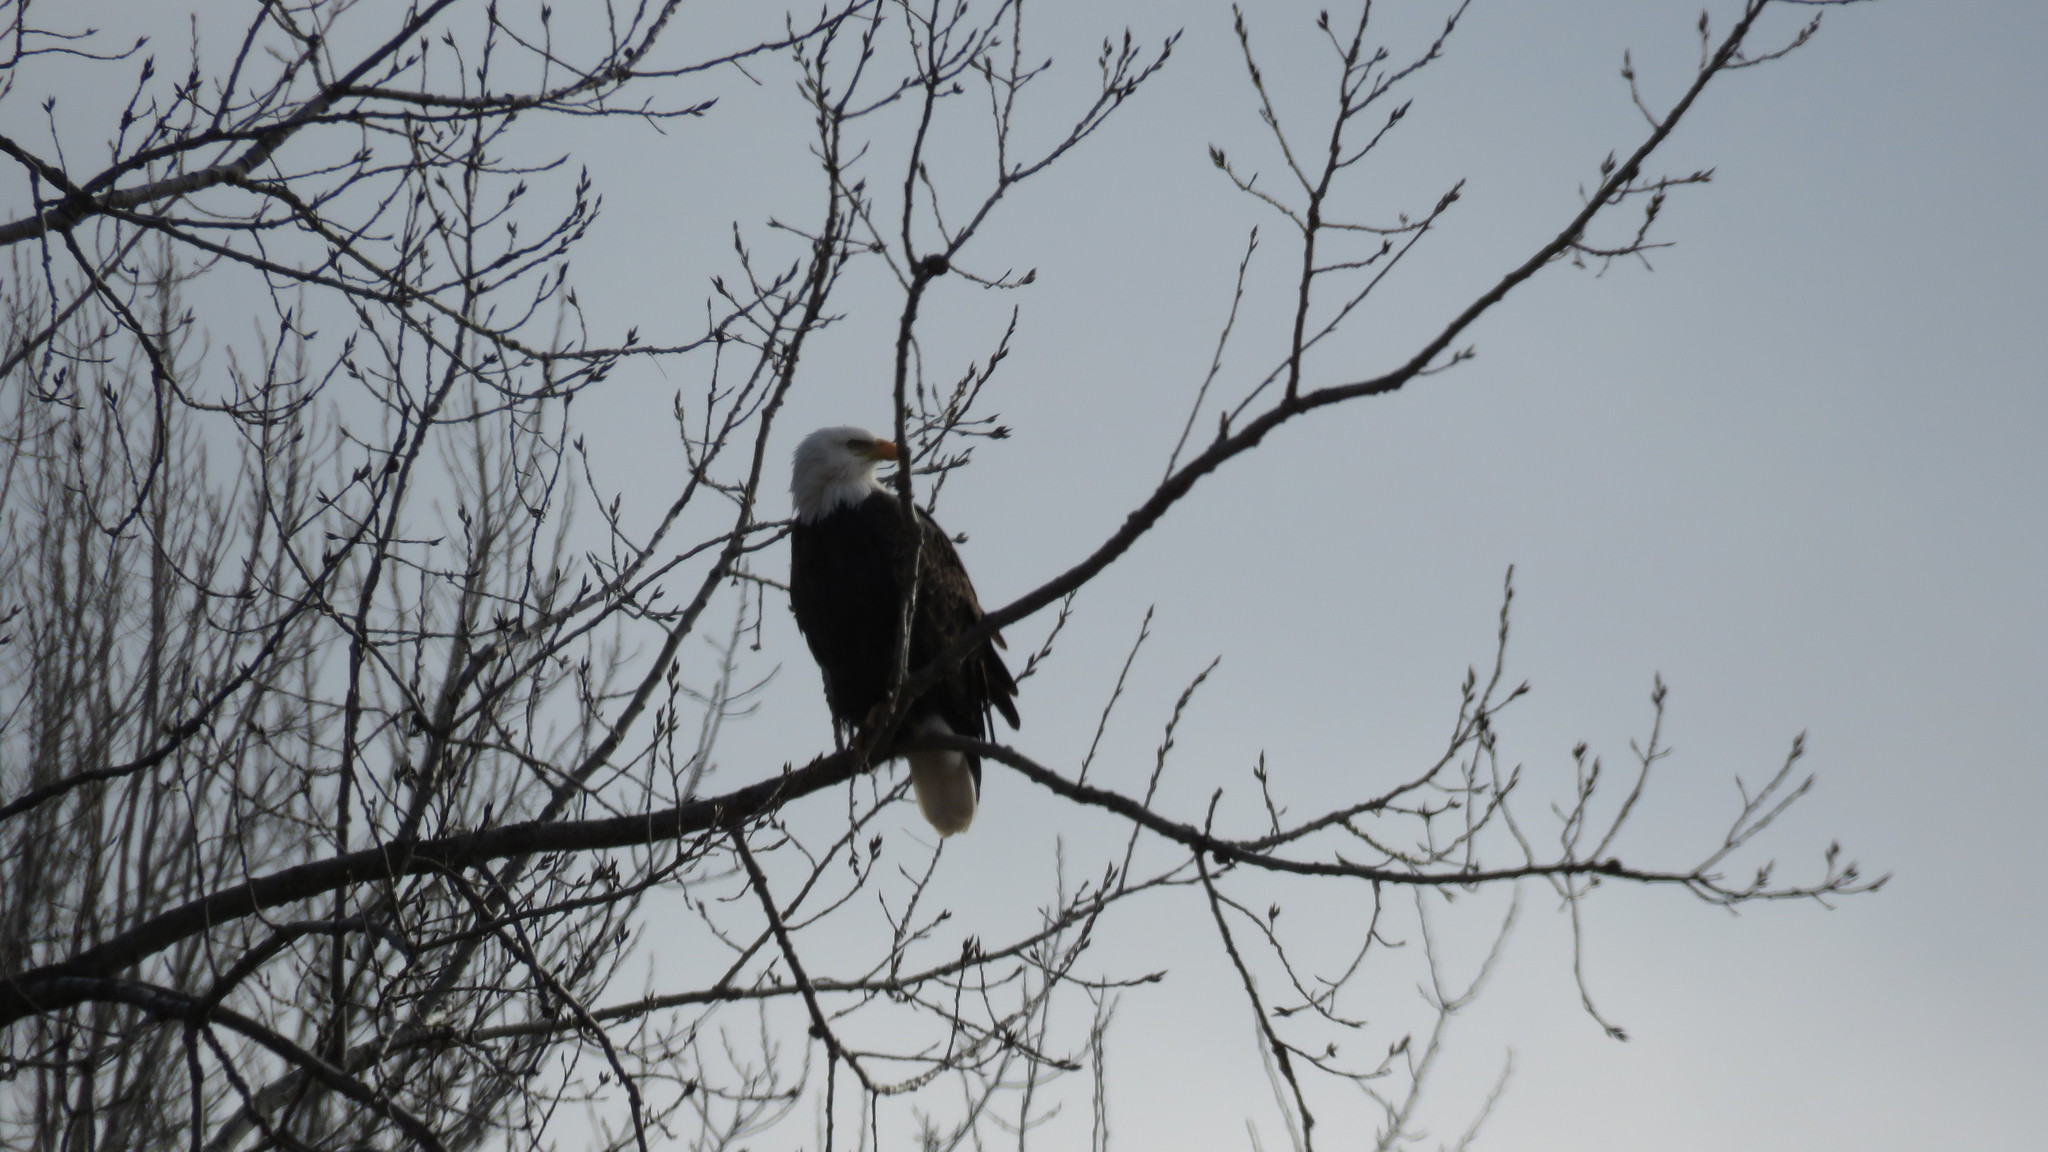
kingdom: Animalia
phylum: Chordata
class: Aves
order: Accipitriformes
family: Accipitridae
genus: Haliaeetus
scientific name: Haliaeetus leucocephalus
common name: Bald eagle
